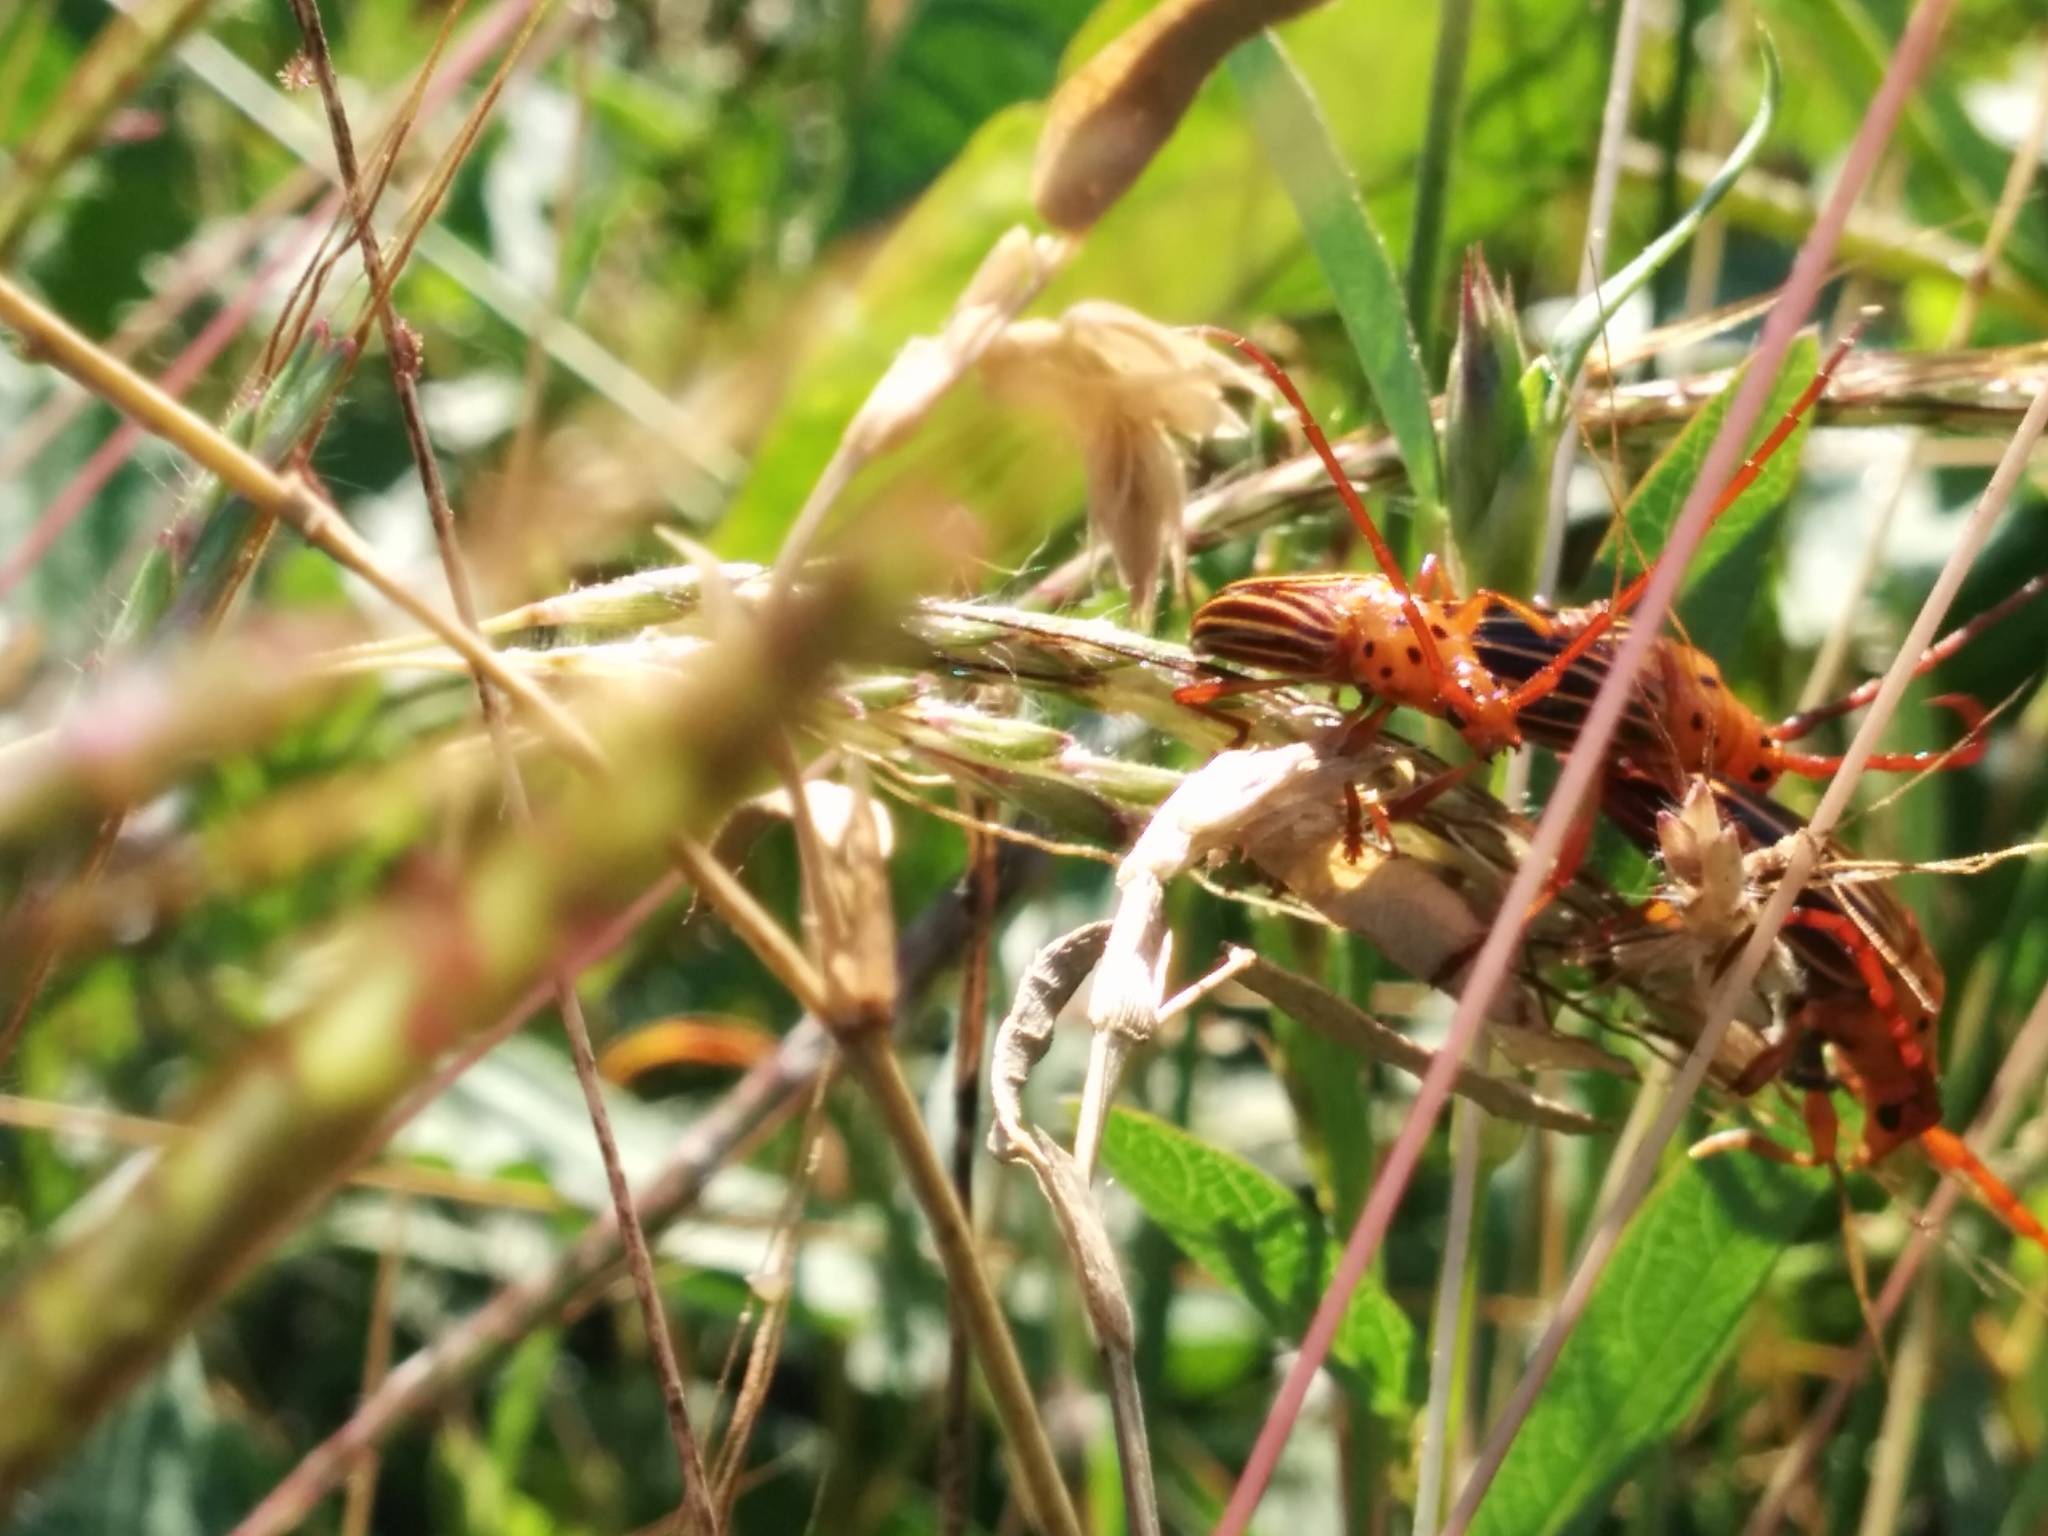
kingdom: Animalia
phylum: Arthropoda
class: Insecta
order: Coleoptera
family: Cerambycidae
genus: Oxymerus
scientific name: Oxymerus aculeatus
